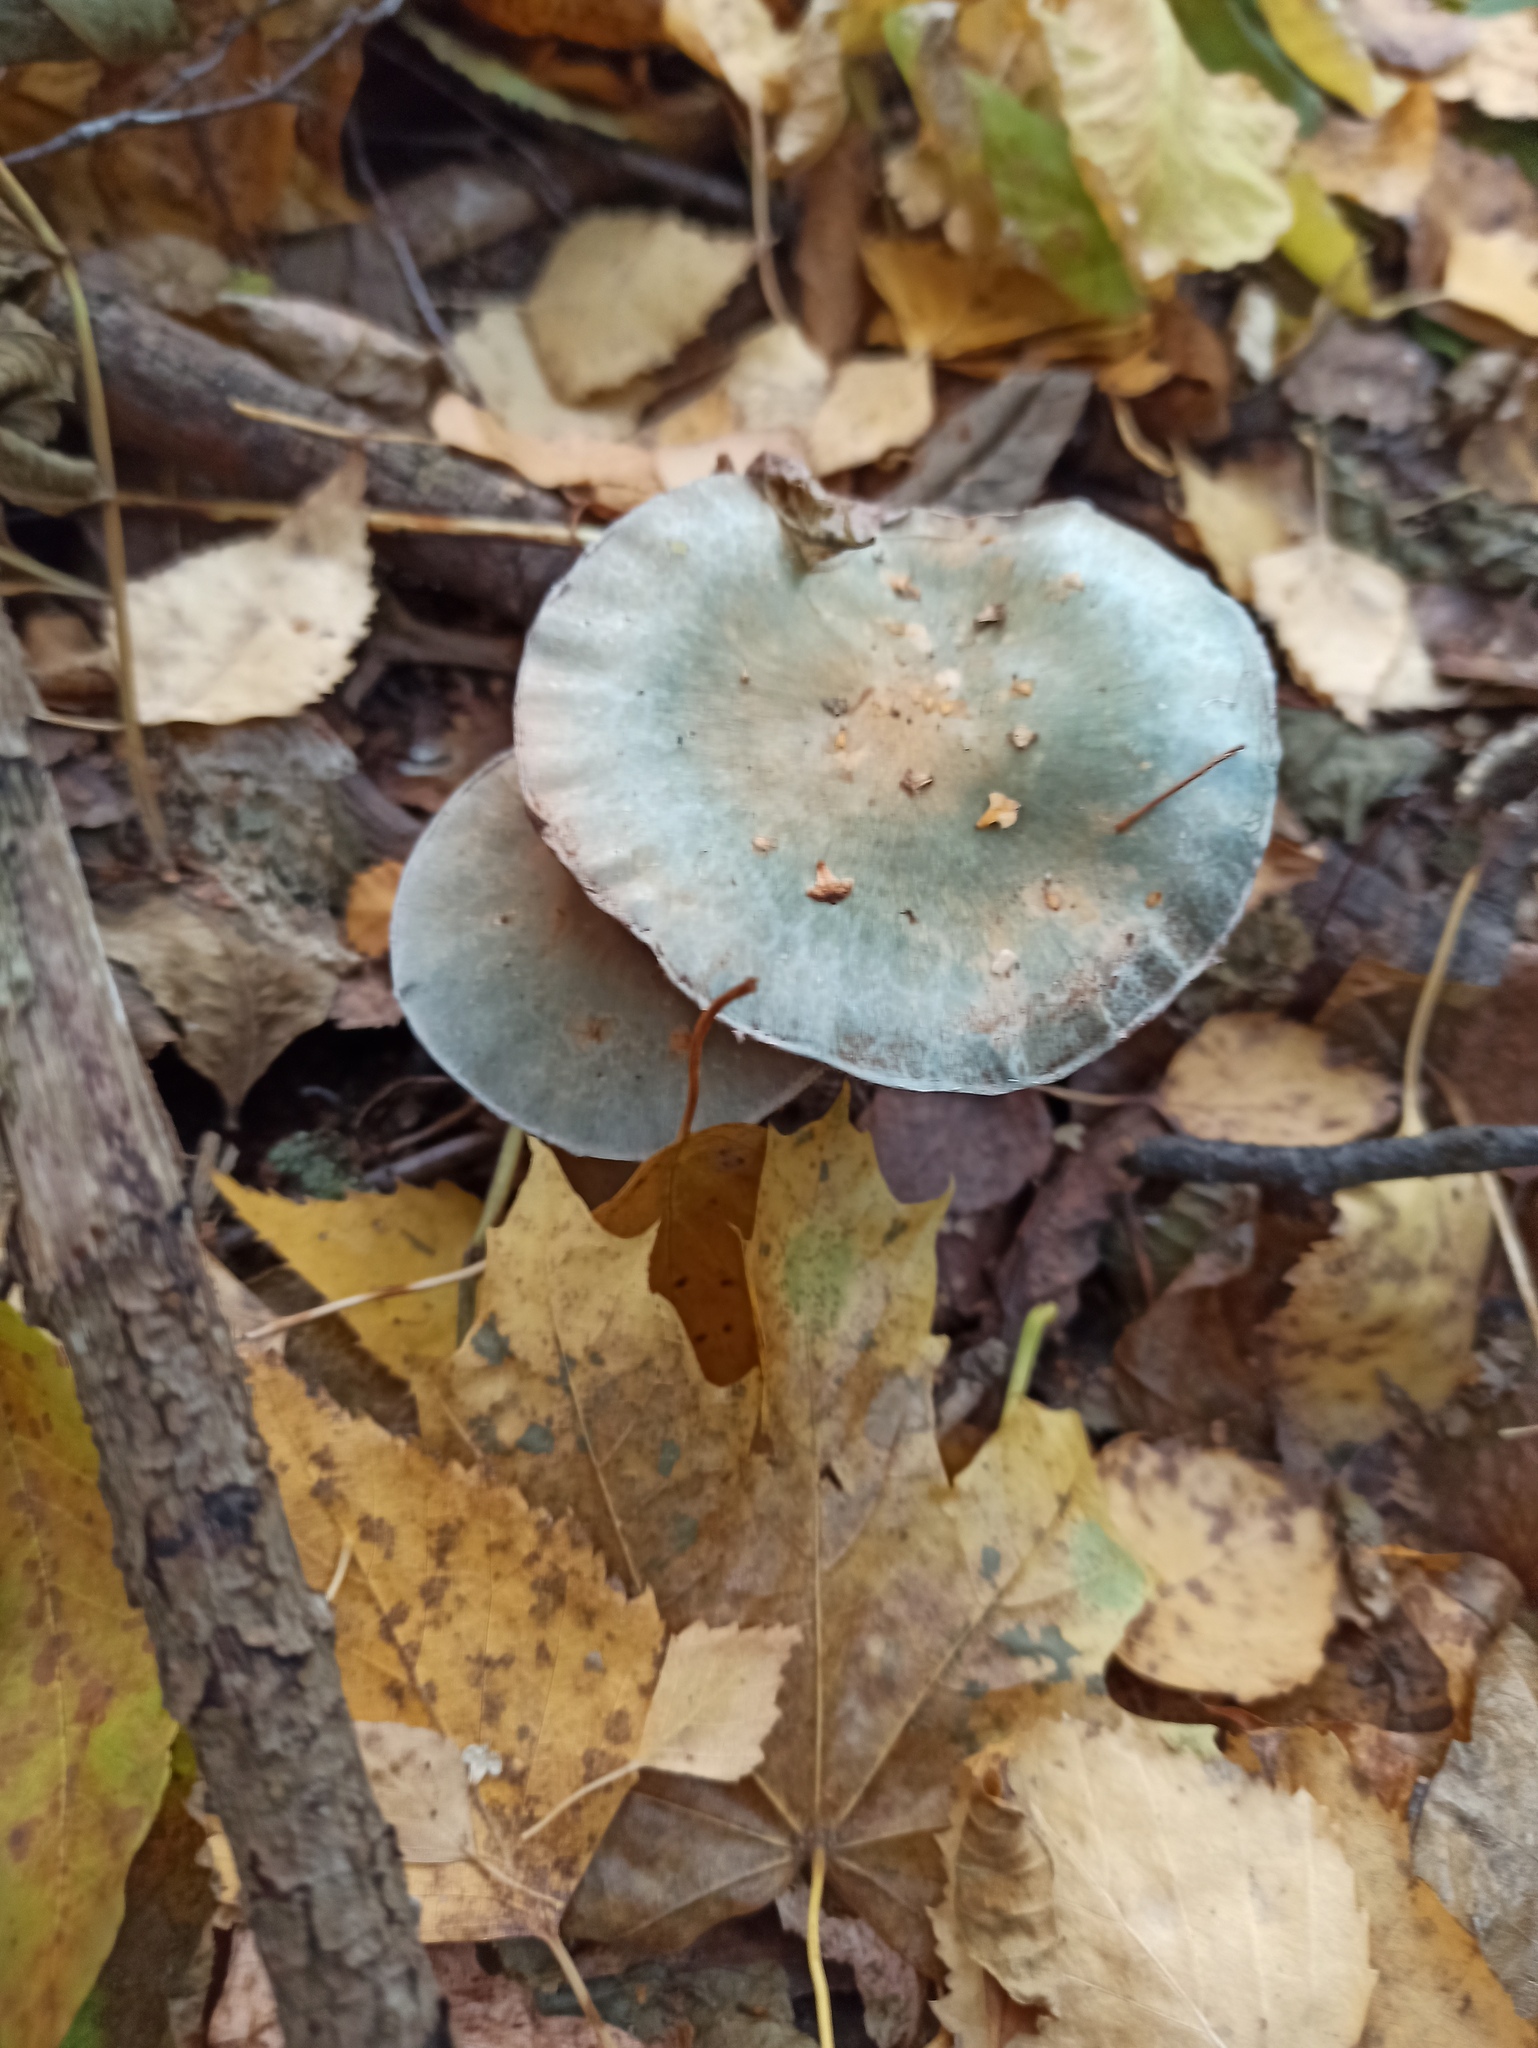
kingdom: Fungi
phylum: Basidiomycota
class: Agaricomycetes
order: Agaricales
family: Strophariaceae
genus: Stropharia
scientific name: Stropharia aeruginosa
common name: Verdigris roundhead
